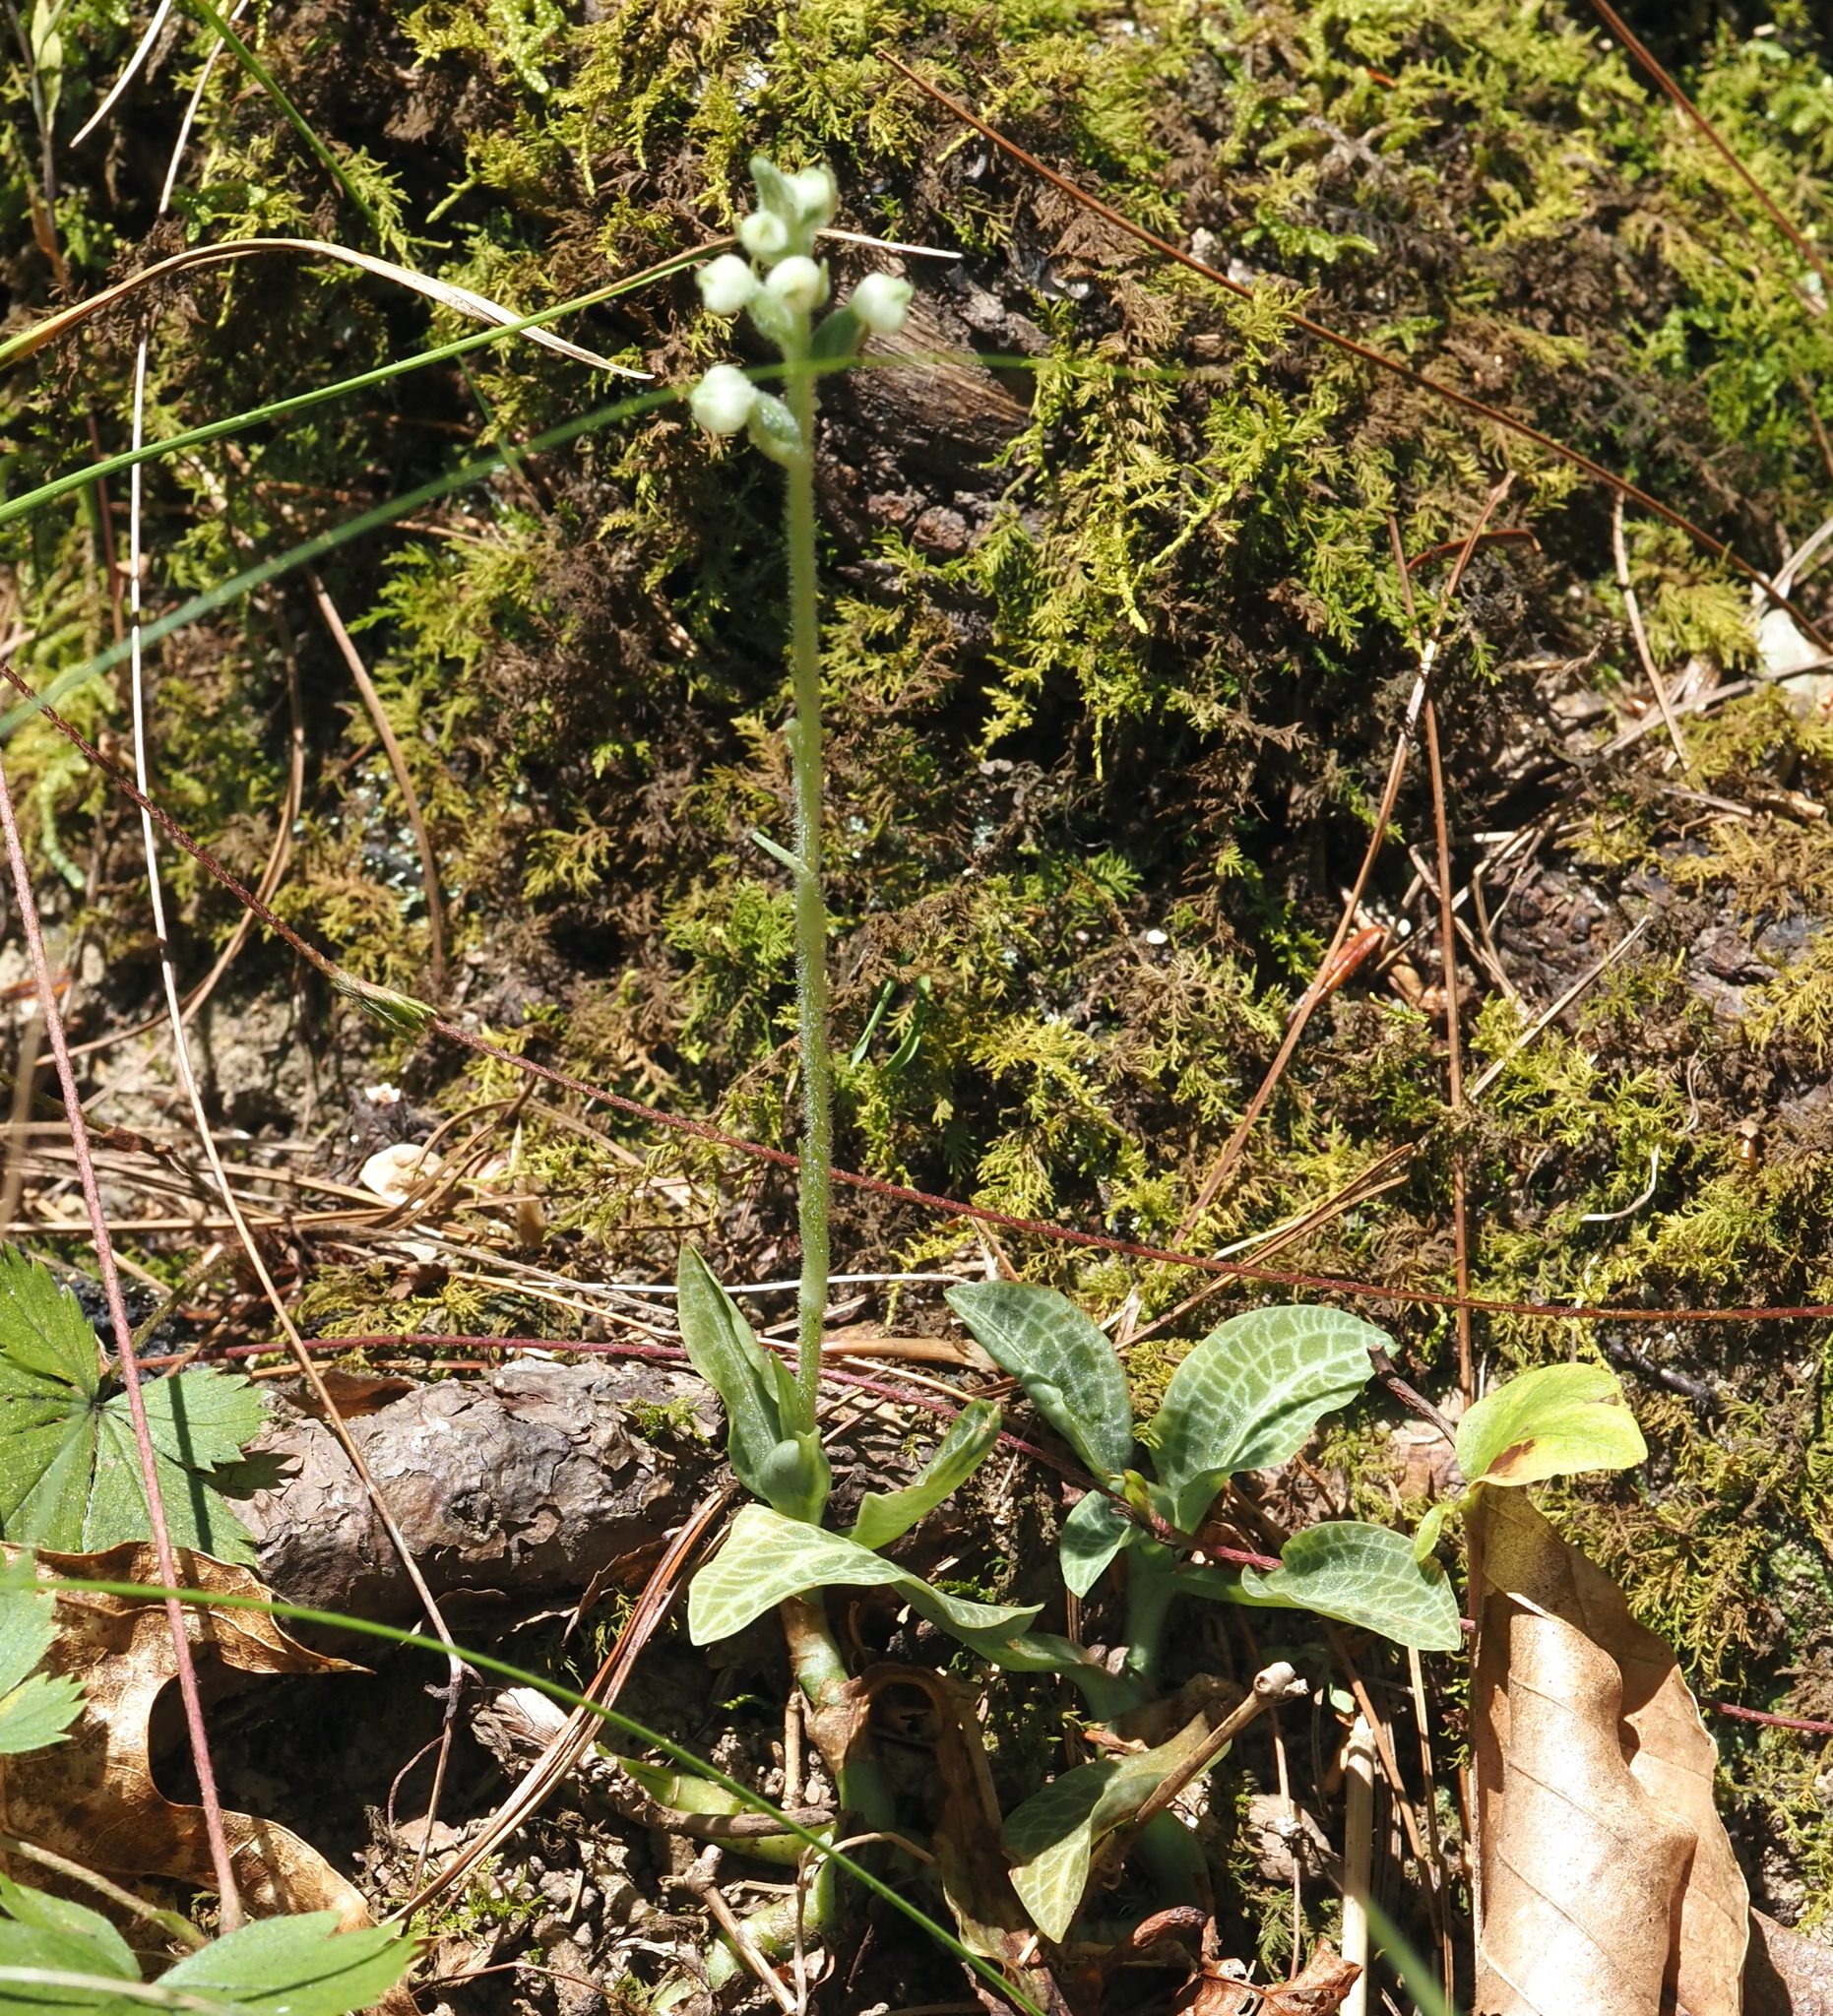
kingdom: Plantae
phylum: Tracheophyta
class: Liliopsida
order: Asparagales
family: Orchidaceae
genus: Goodyera
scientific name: Goodyera pubescens
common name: Downy rattlesnake-plantain
